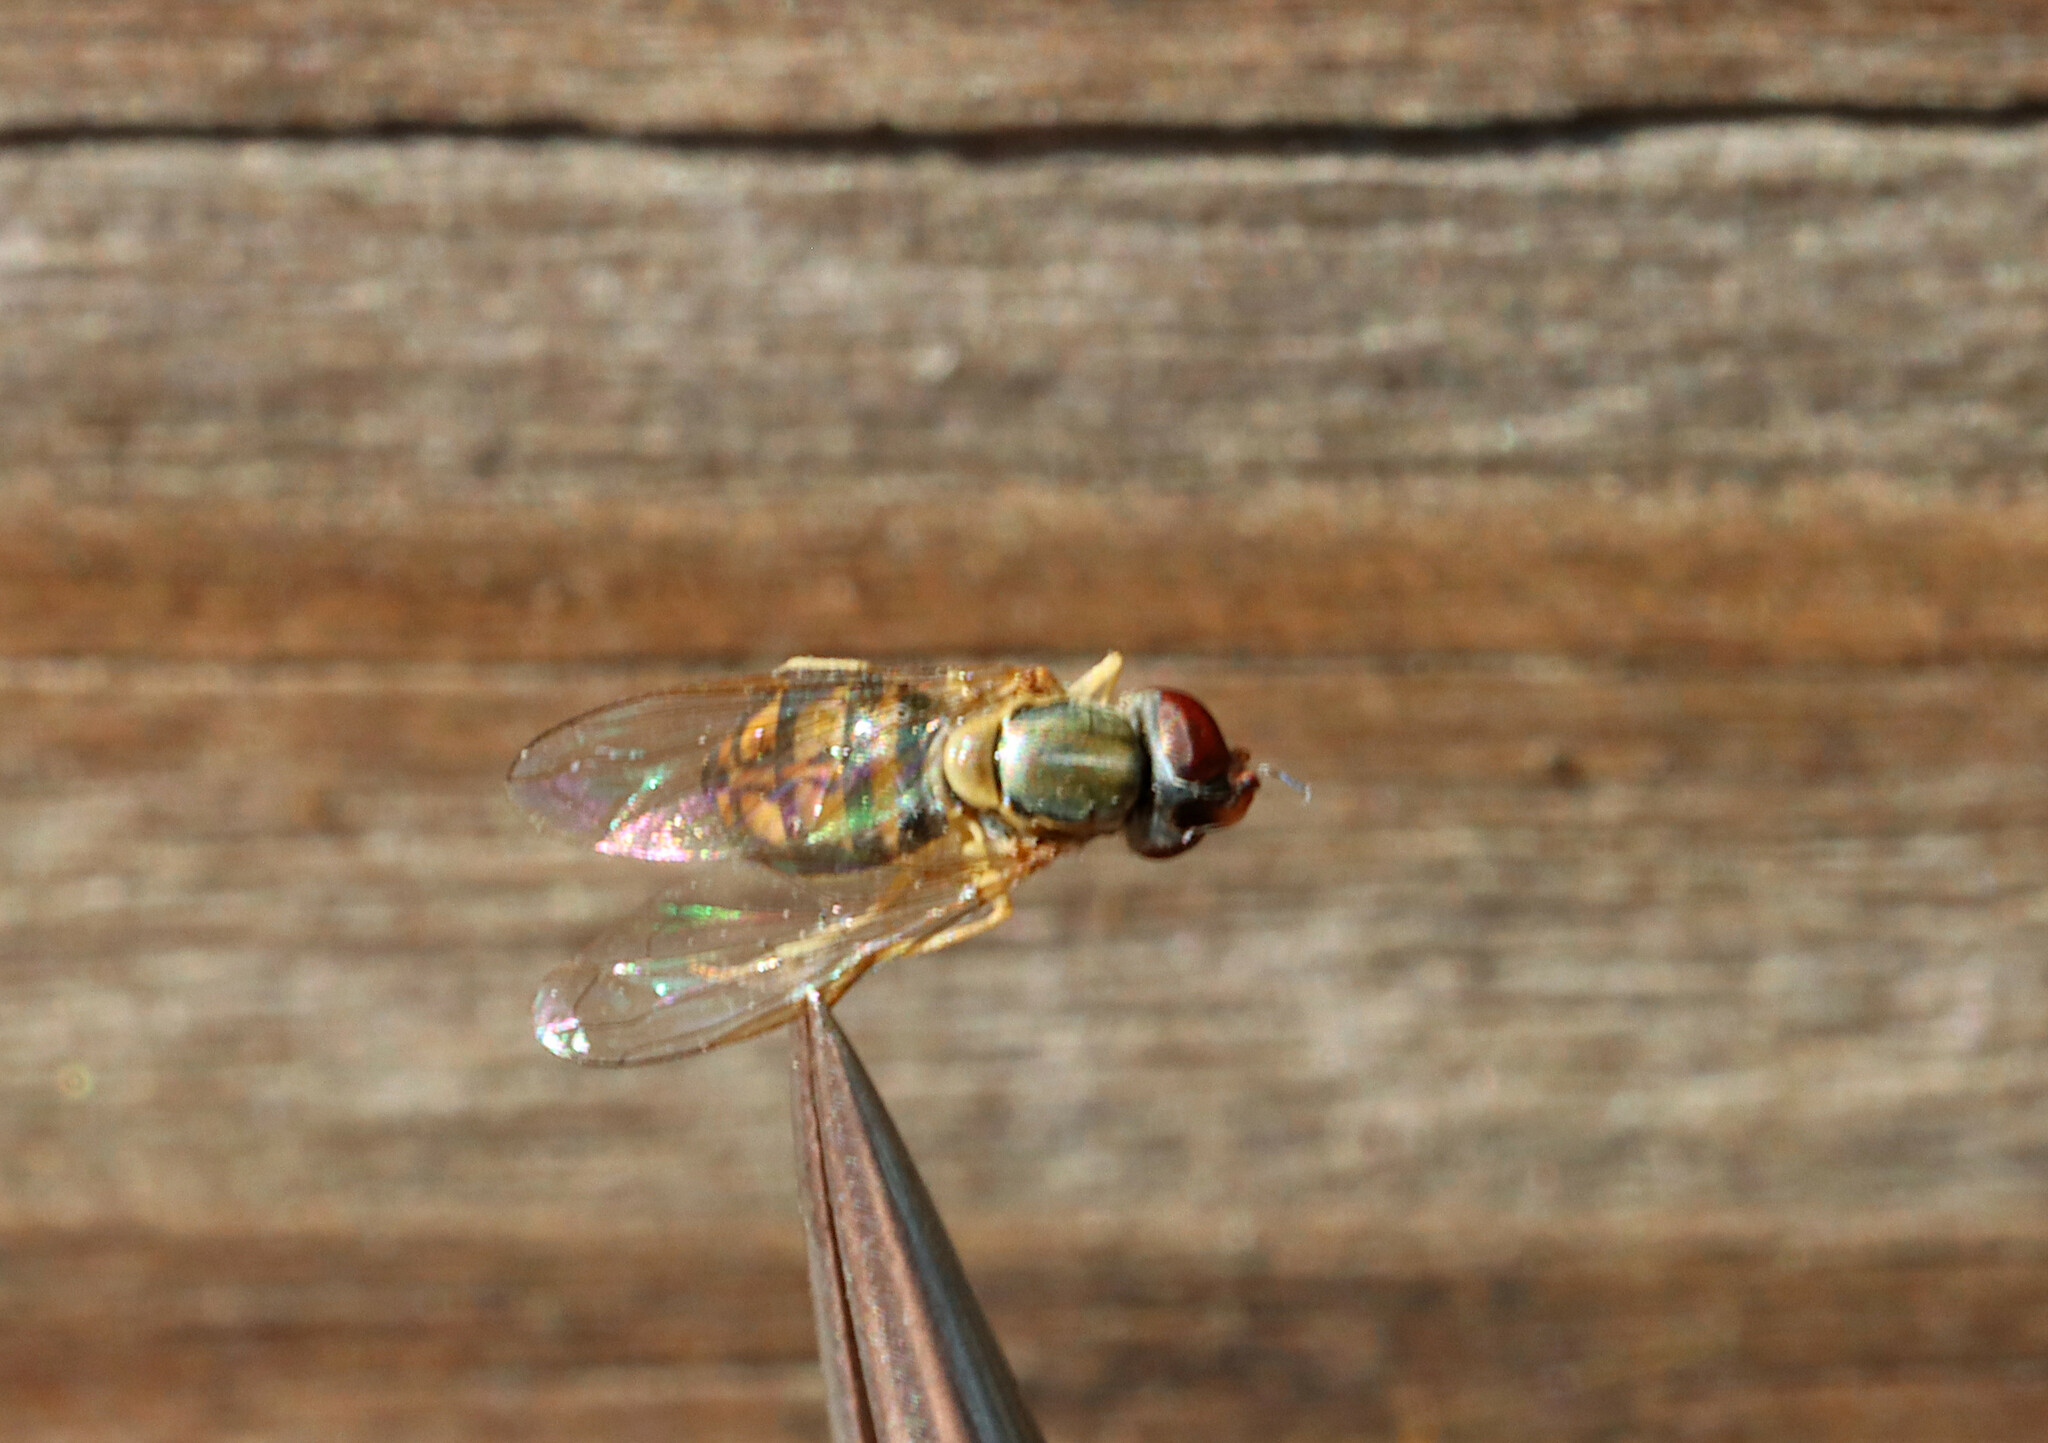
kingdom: Animalia
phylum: Arthropoda
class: Insecta
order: Diptera
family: Syrphidae
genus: Toxomerus
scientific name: Toxomerus marginatus
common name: Syrphid fly
